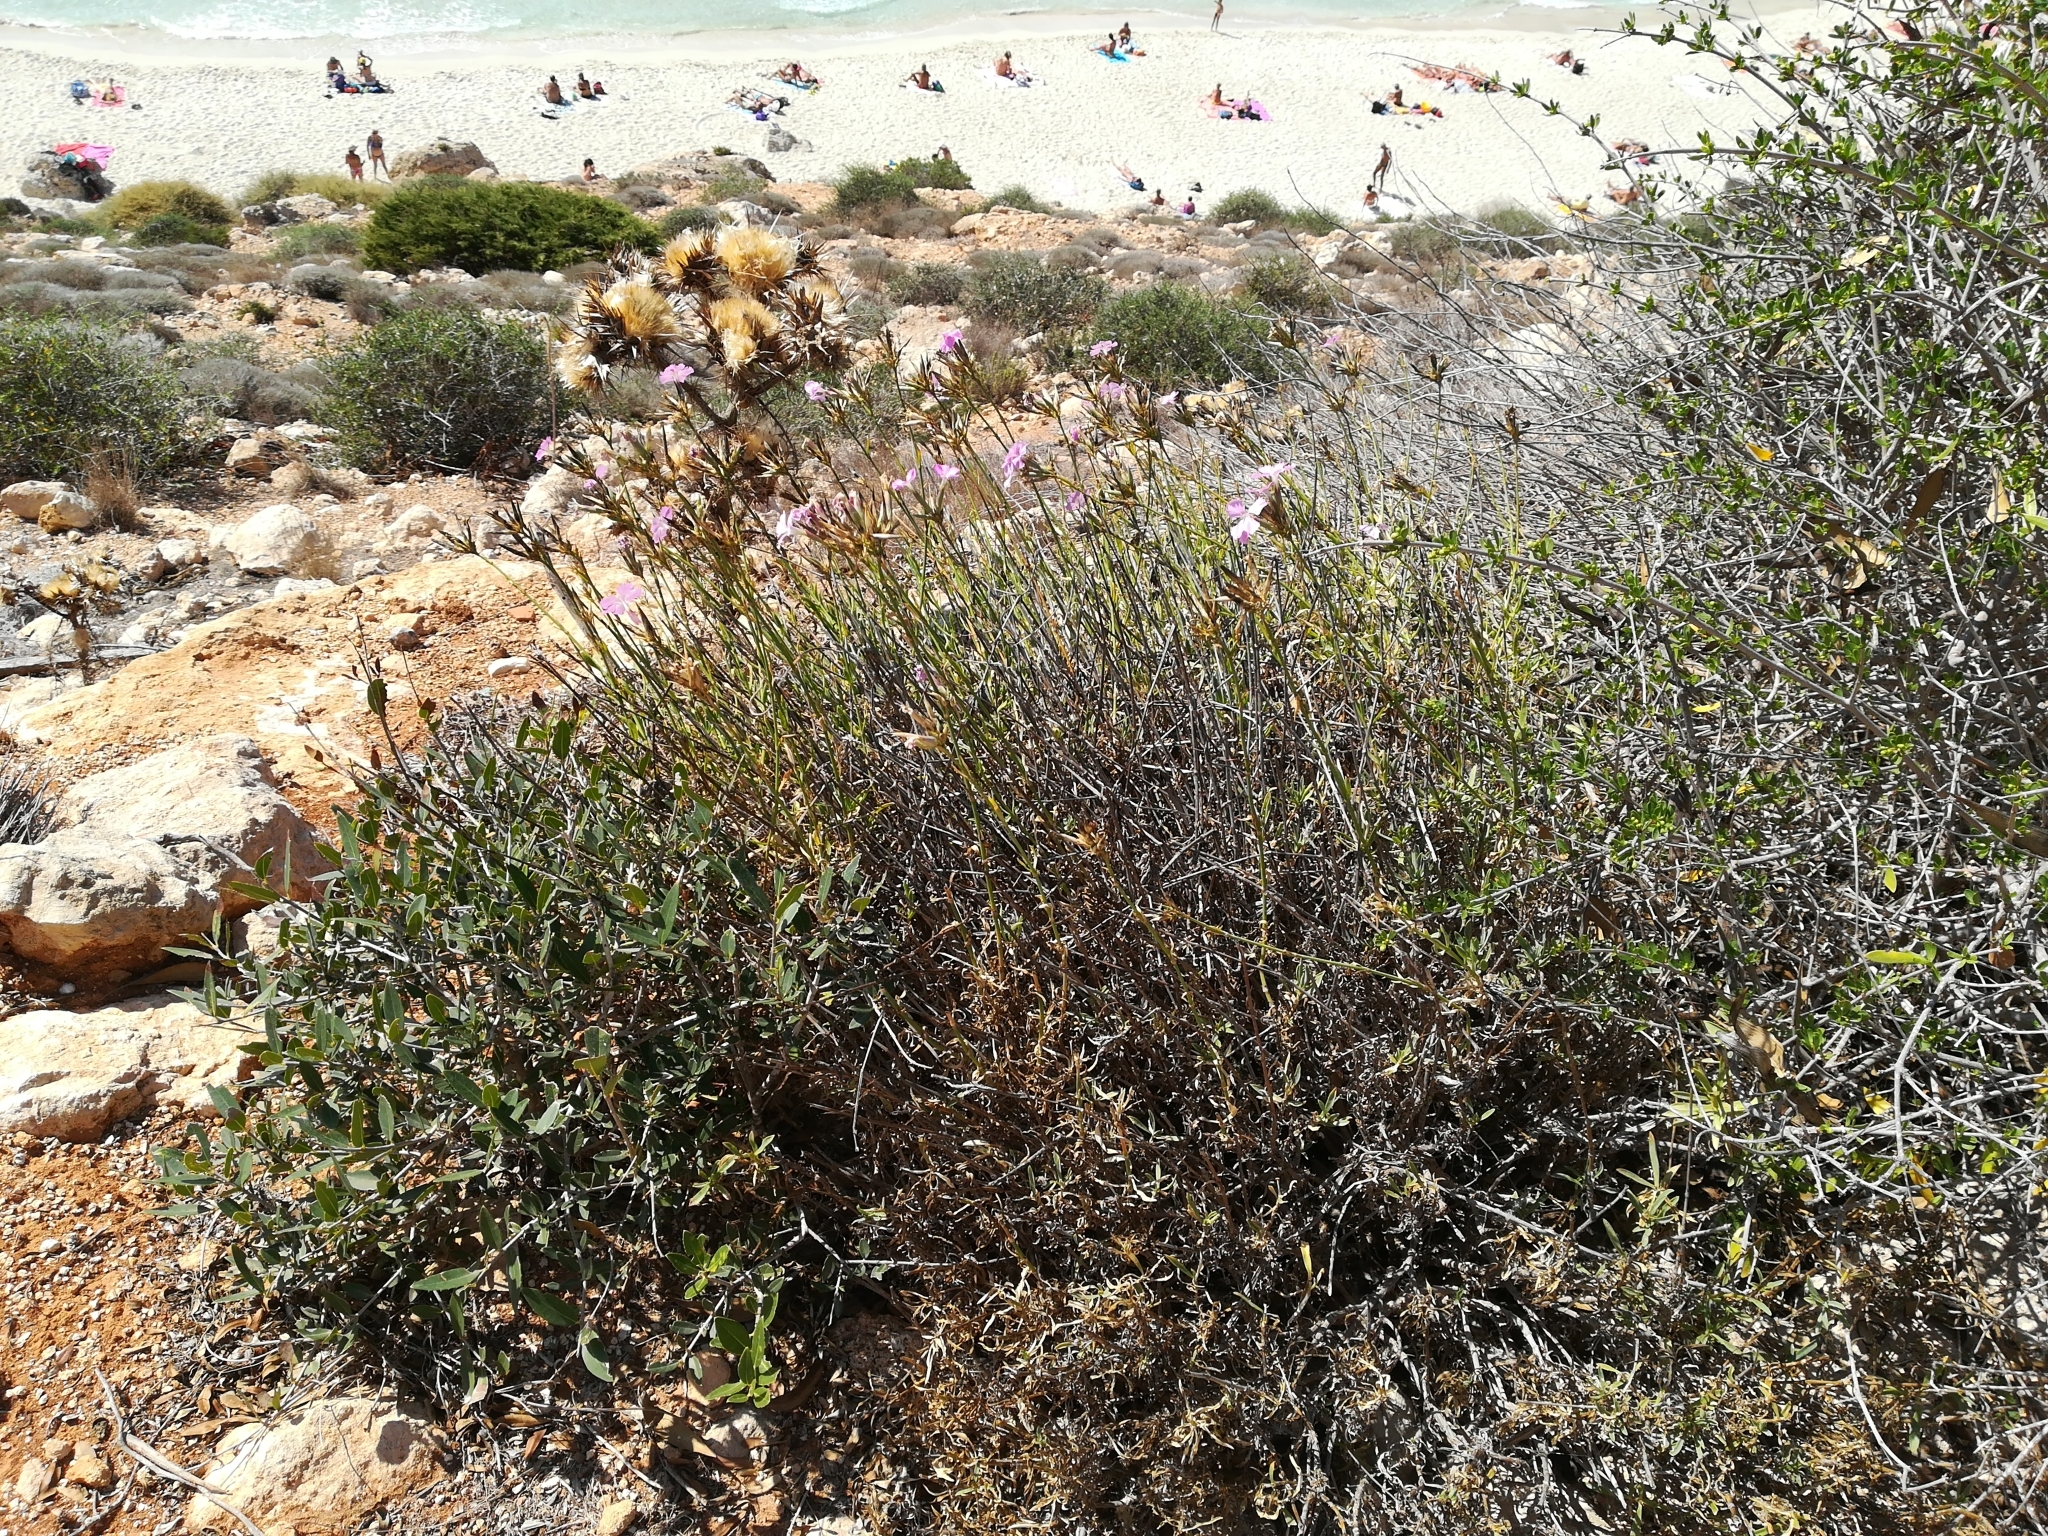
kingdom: Plantae
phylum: Tracheophyta
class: Magnoliopsida
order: Caryophyllales
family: Caryophyllaceae
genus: Dianthus
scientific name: Dianthus rupicola
